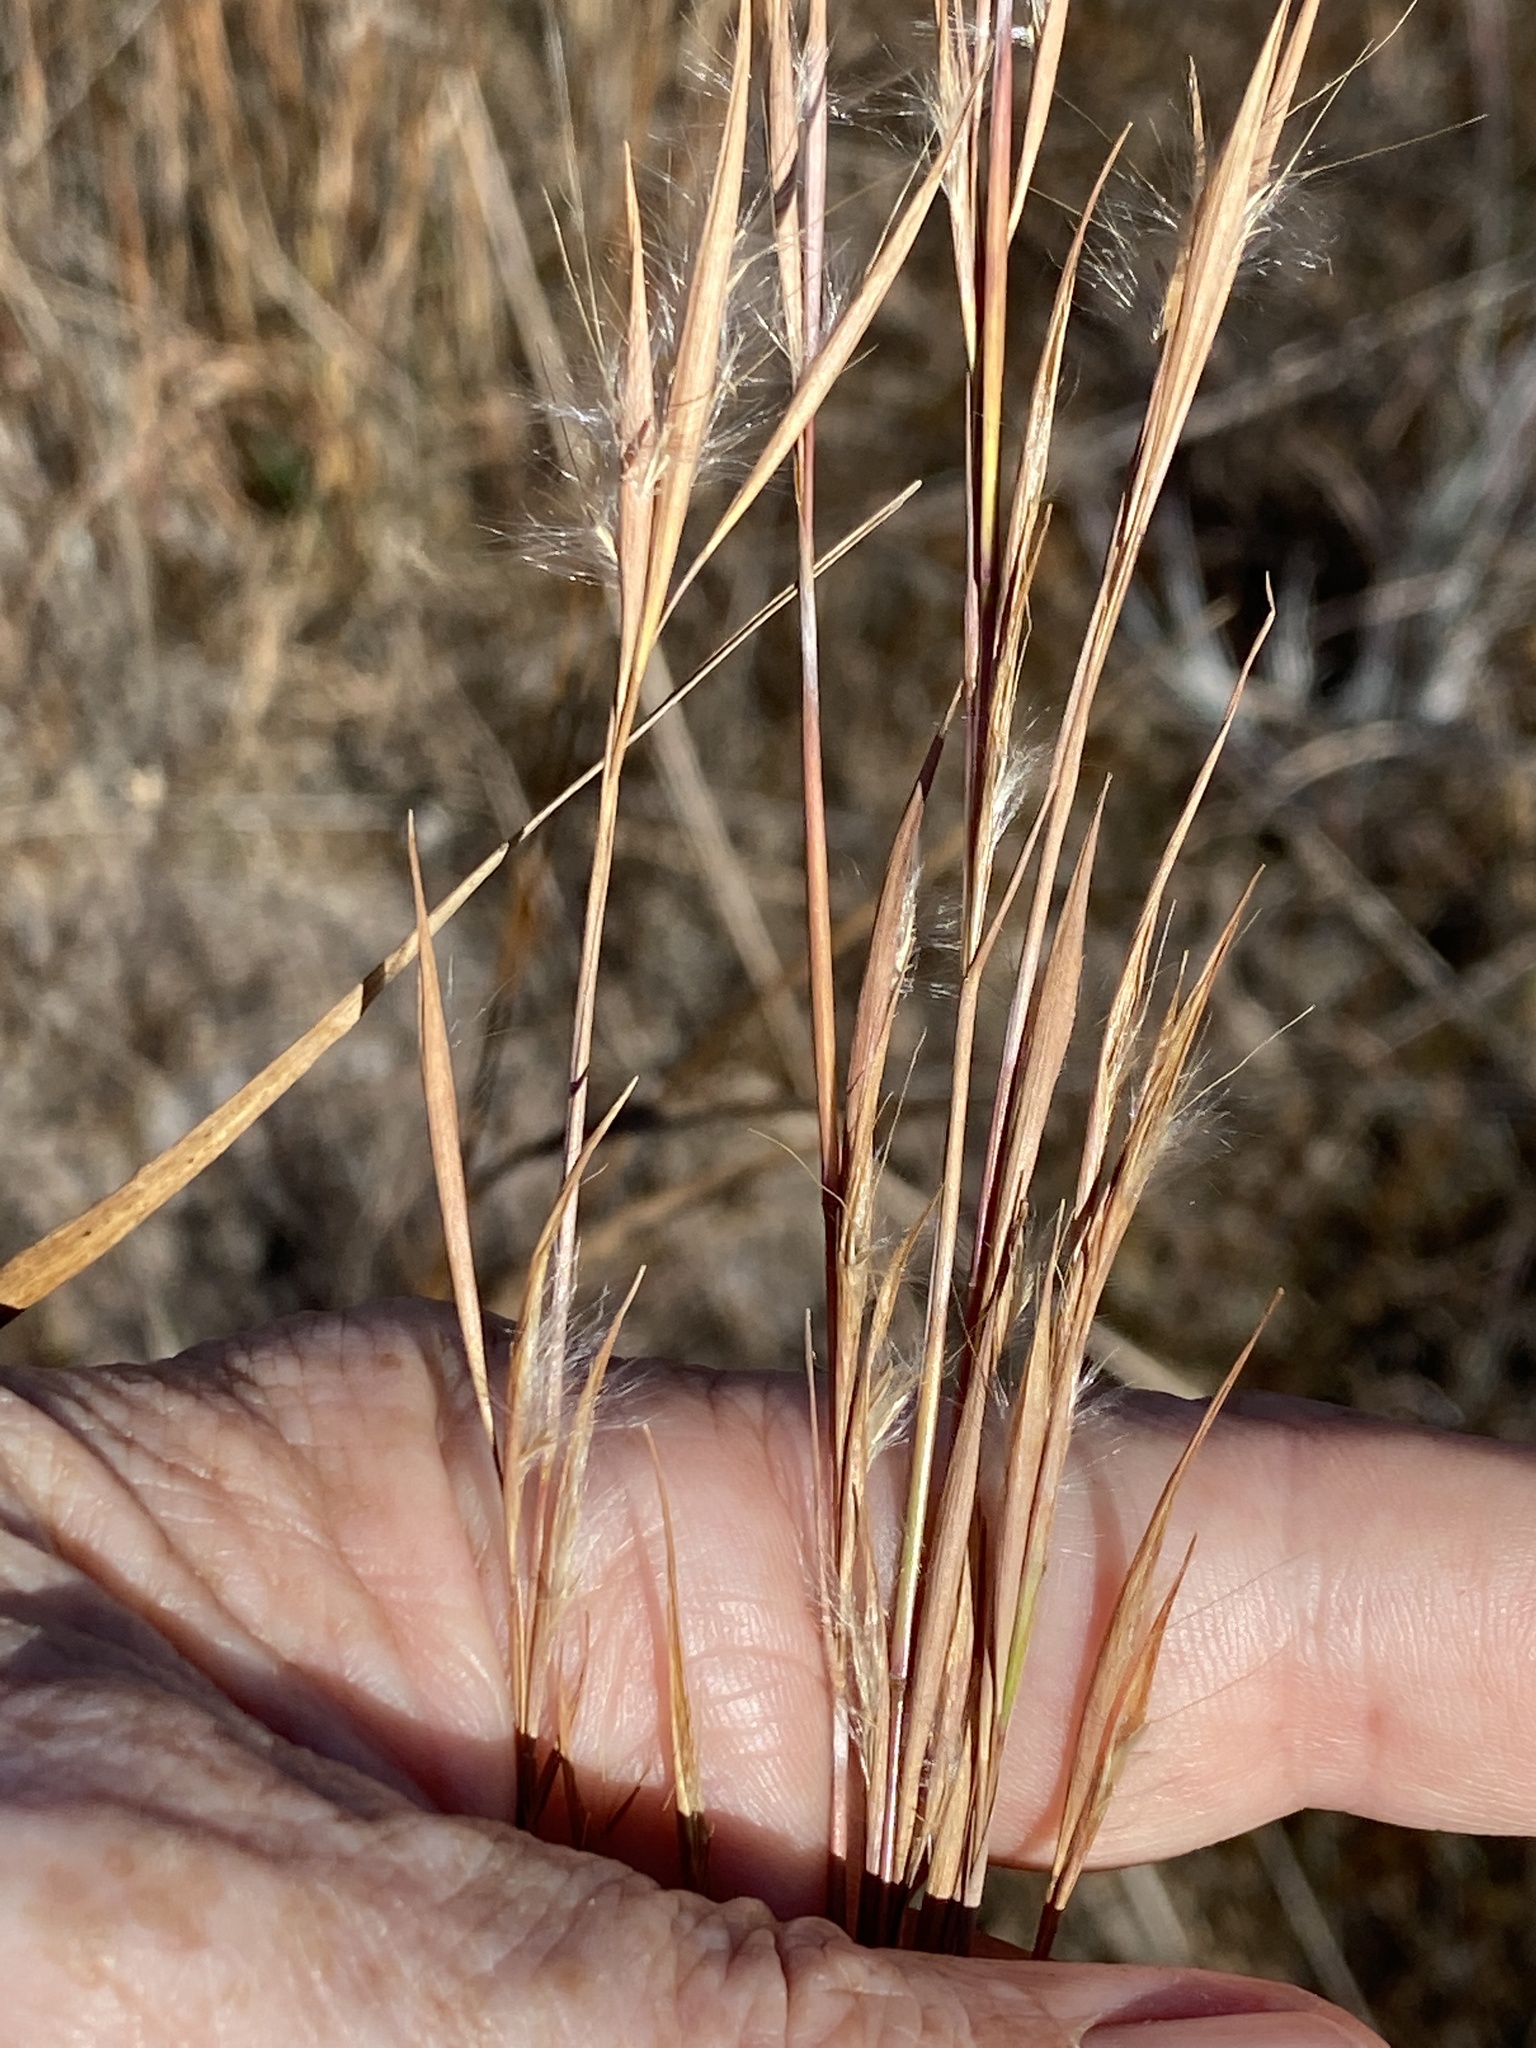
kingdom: Plantae
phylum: Tracheophyta
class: Liliopsida
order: Poales
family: Poaceae
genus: Andropogon
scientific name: Andropogon capillipes
